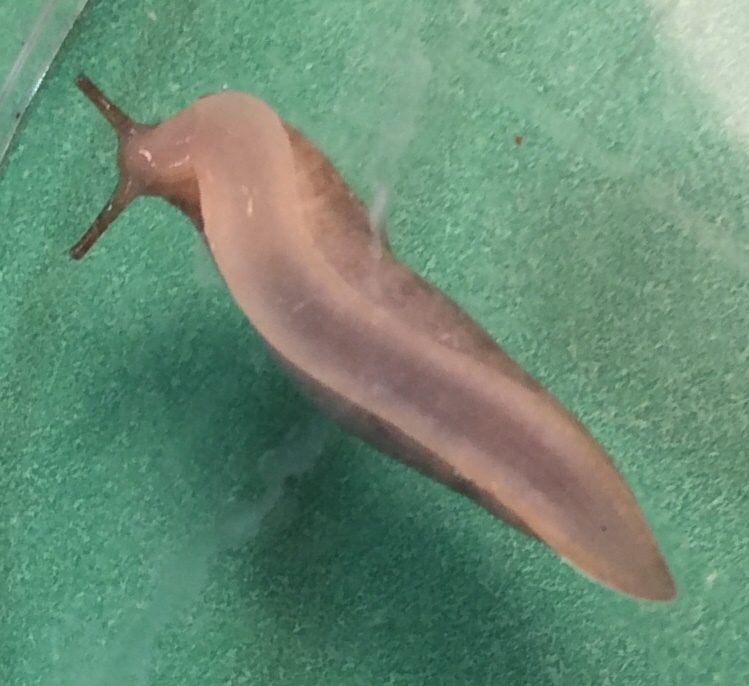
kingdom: Animalia
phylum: Mollusca
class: Gastropoda
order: Stylommatophora
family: Agriolimacidae
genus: Deroceras
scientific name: Deroceras reticulatum
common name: Gray field slug
